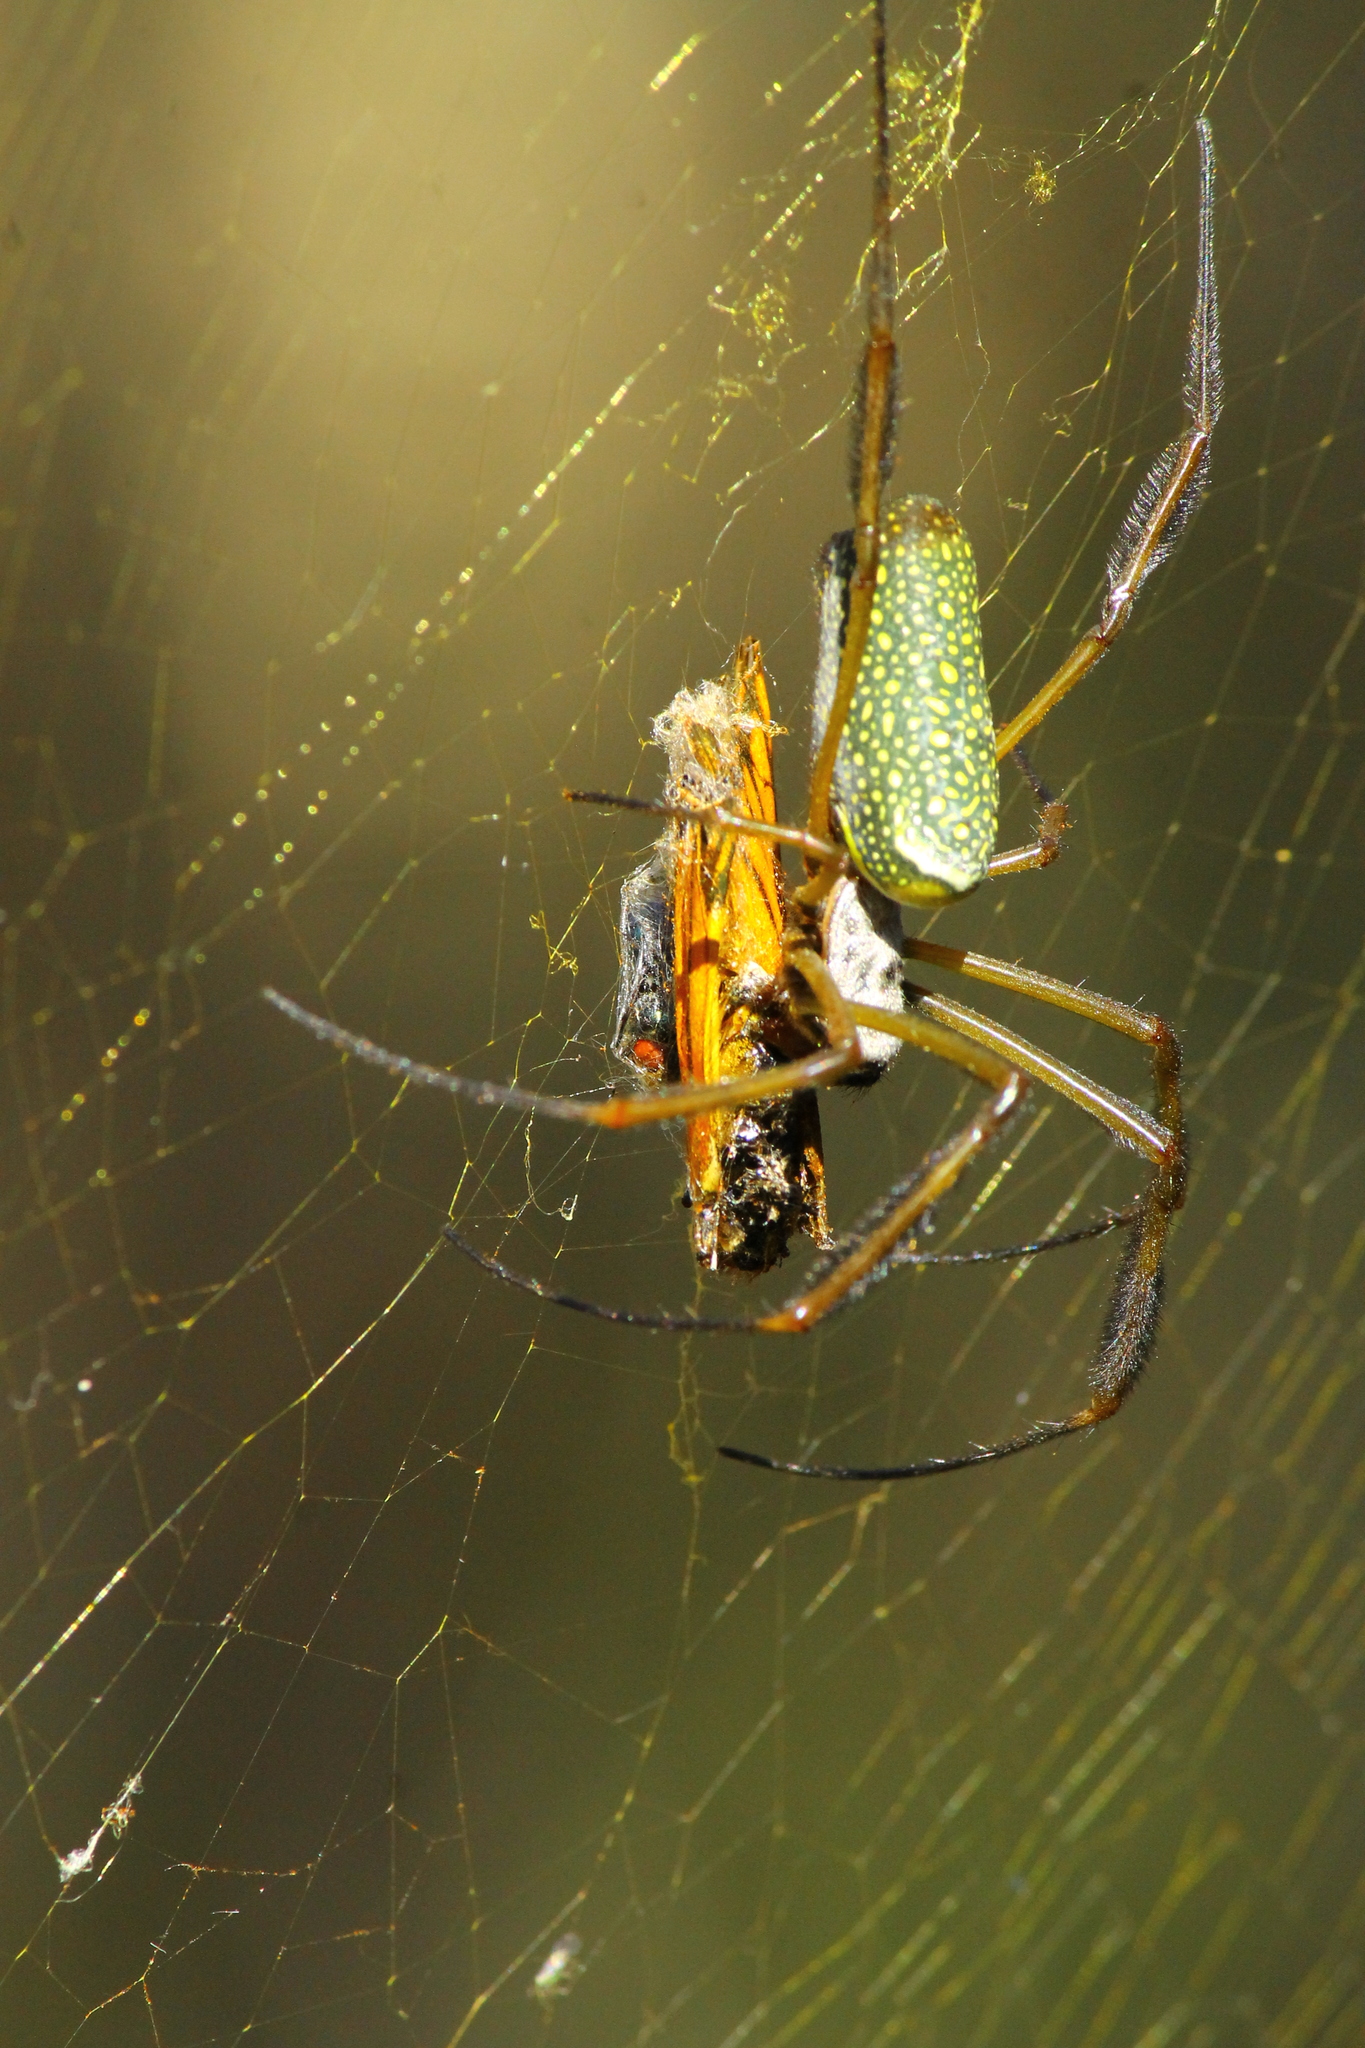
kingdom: Animalia
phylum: Arthropoda
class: Arachnida
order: Araneae
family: Araneidae
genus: Trichonephila
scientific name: Trichonephila clavipes
